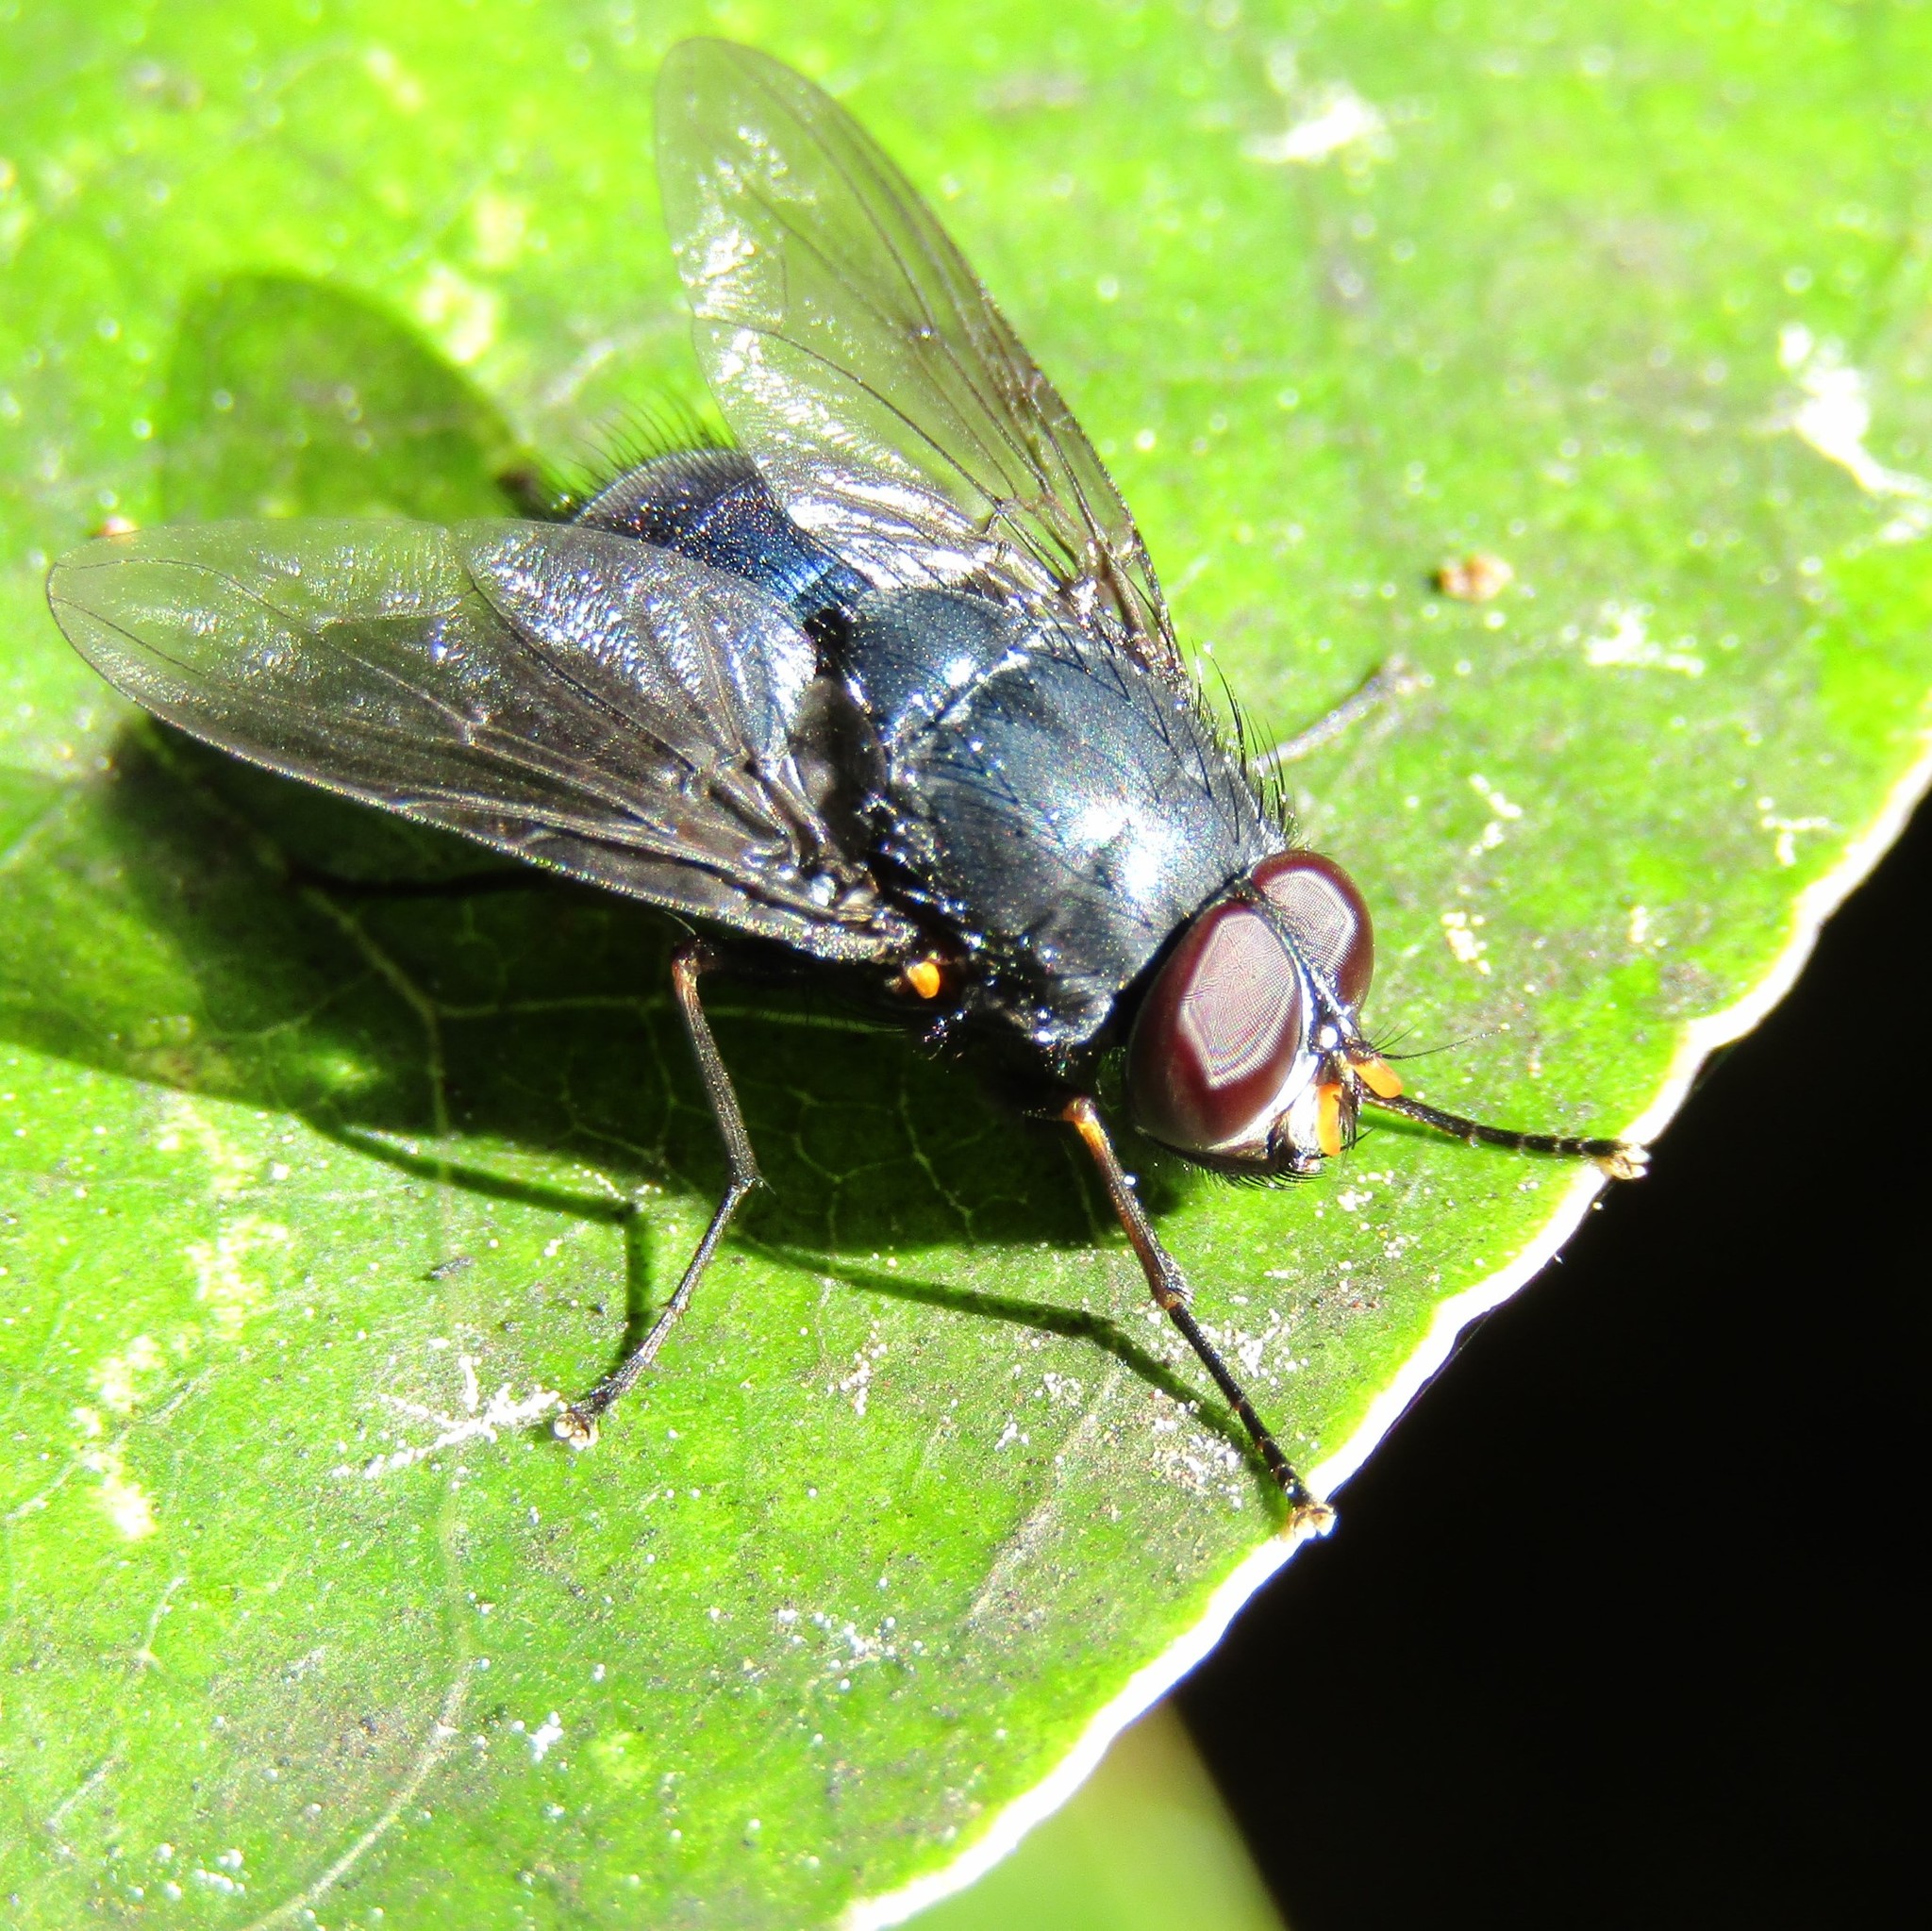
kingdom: Animalia
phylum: Arthropoda
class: Insecta
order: Diptera
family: Muscidae
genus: Calliphoroides
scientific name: Calliphoroides antennatis
